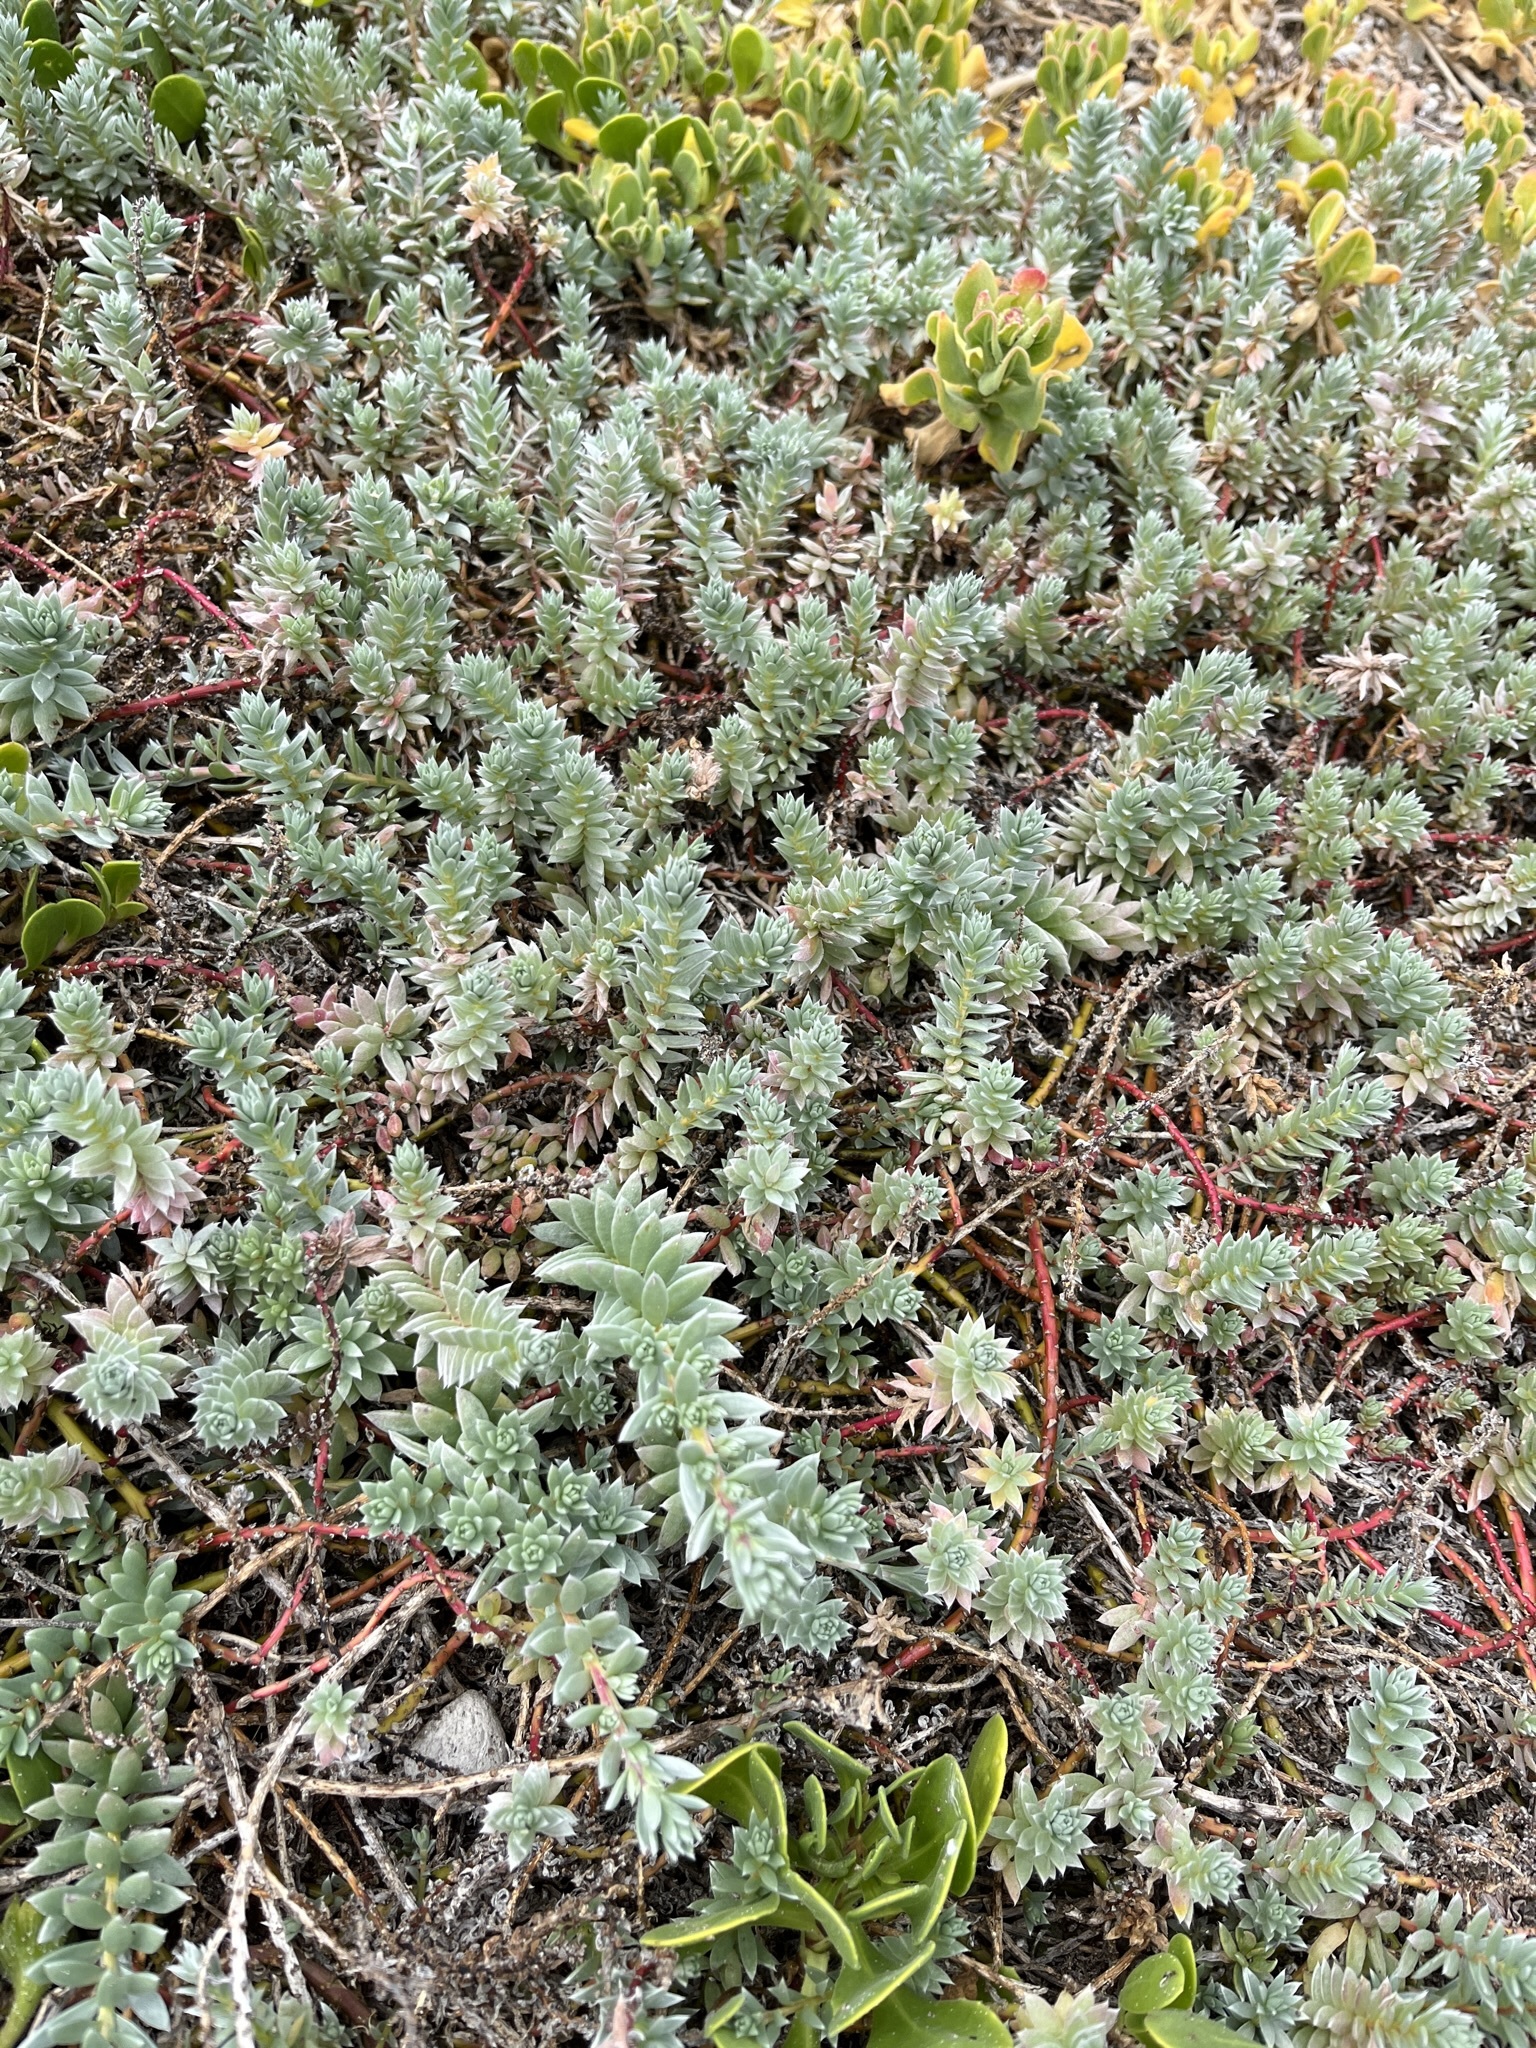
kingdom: Plantae
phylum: Tracheophyta
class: Magnoliopsida
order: Caryophyllales
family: Amaranthaceae
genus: Chenolea
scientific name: Chenolea diffusa
